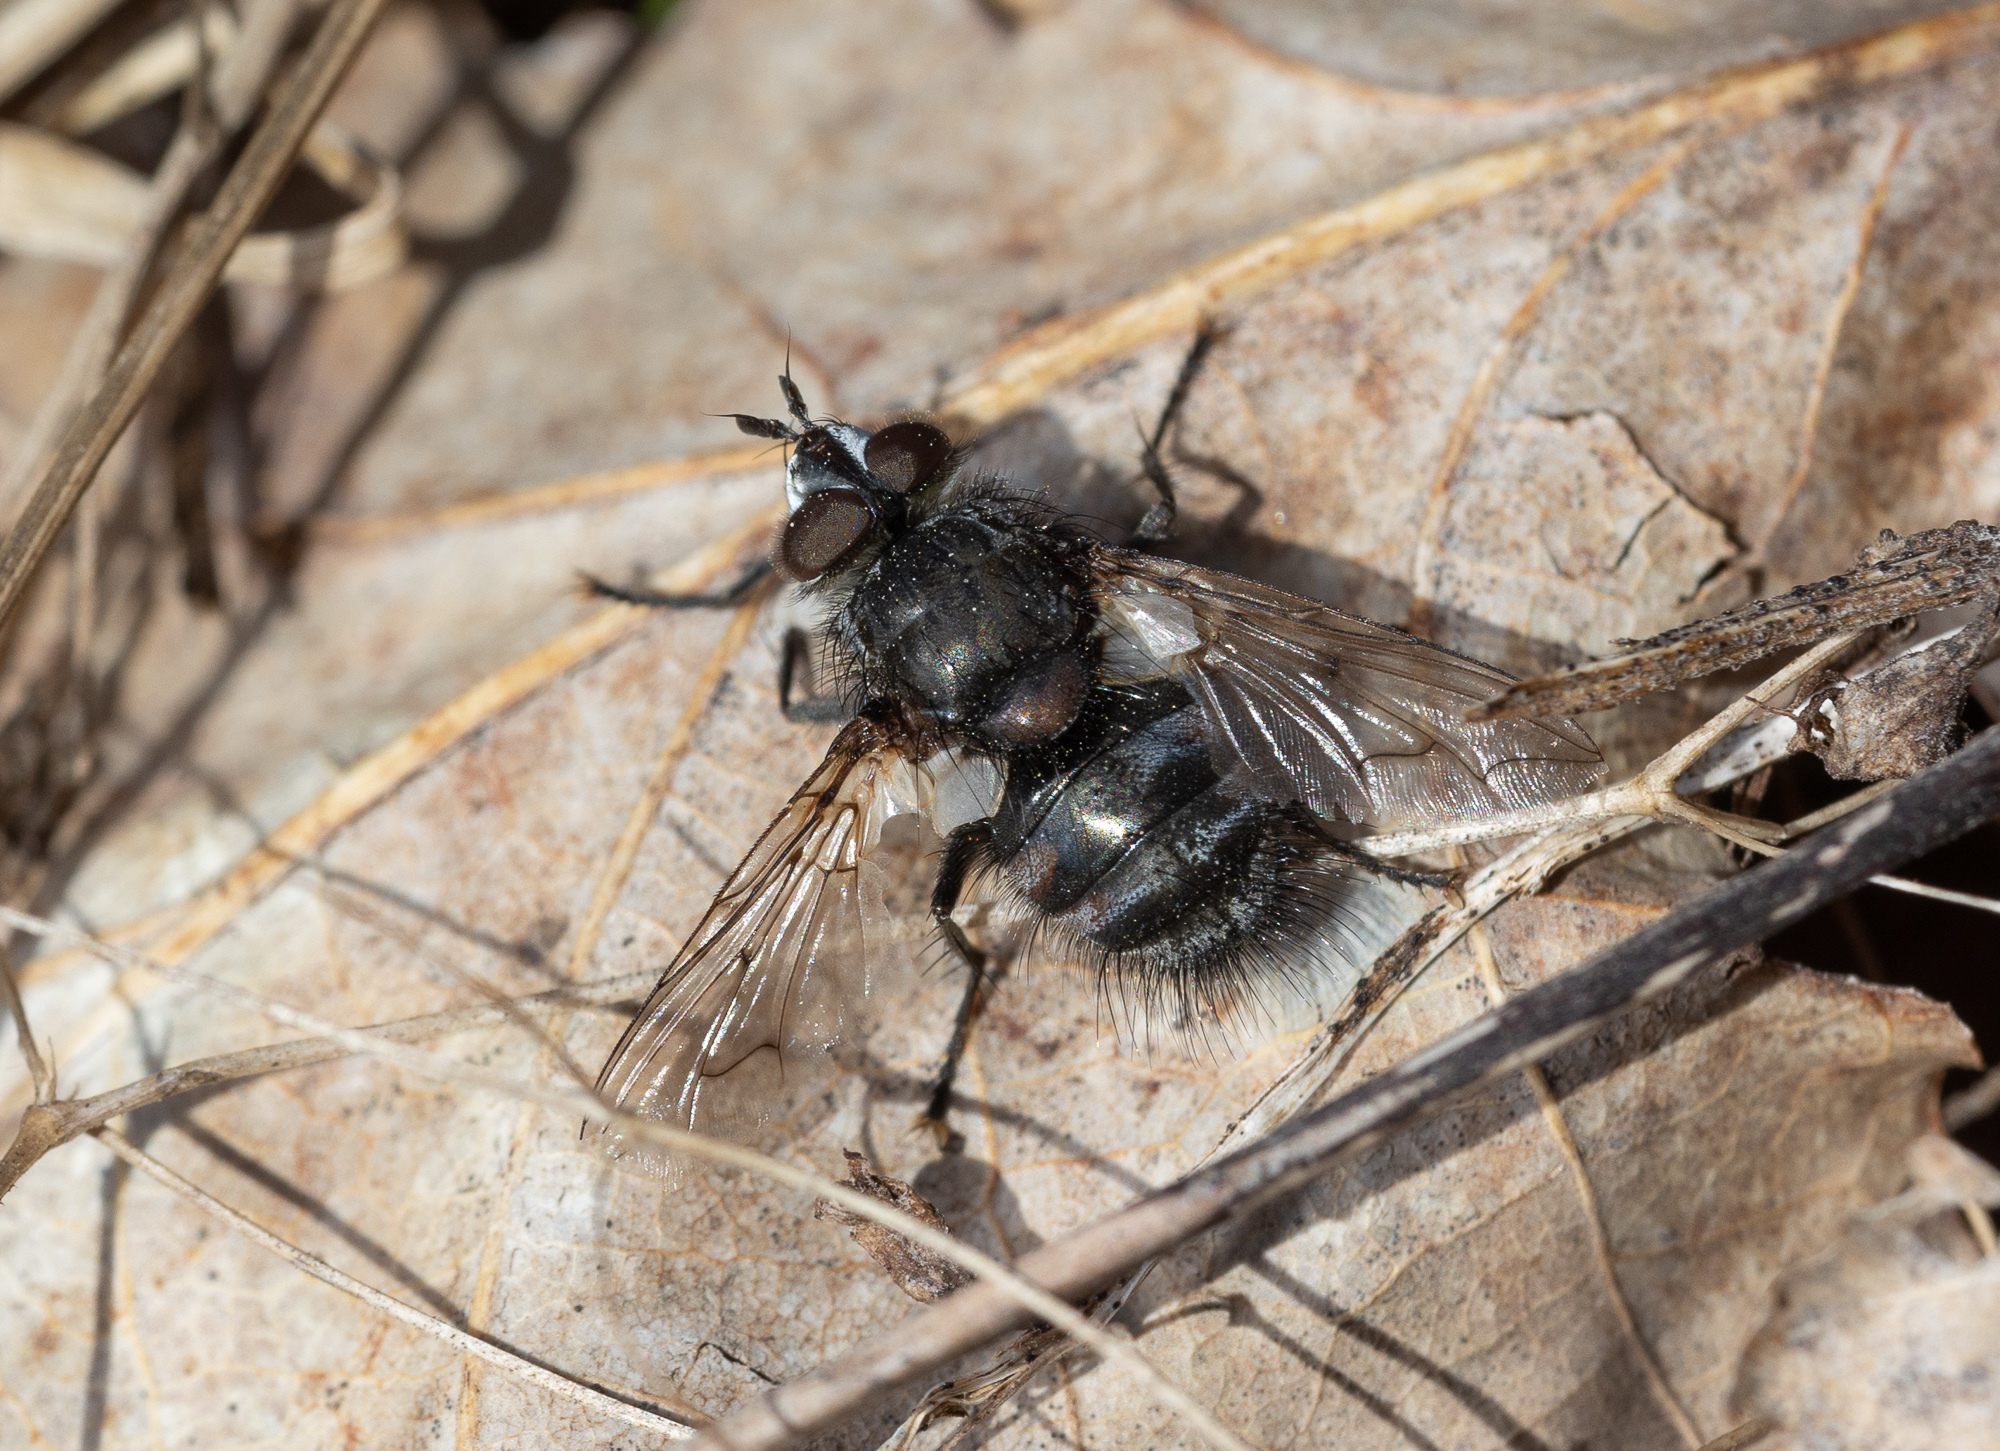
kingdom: Animalia
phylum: Arthropoda
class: Insecta
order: Diptera
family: Tachinidae
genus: Panzeria
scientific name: Panzeria puparum
